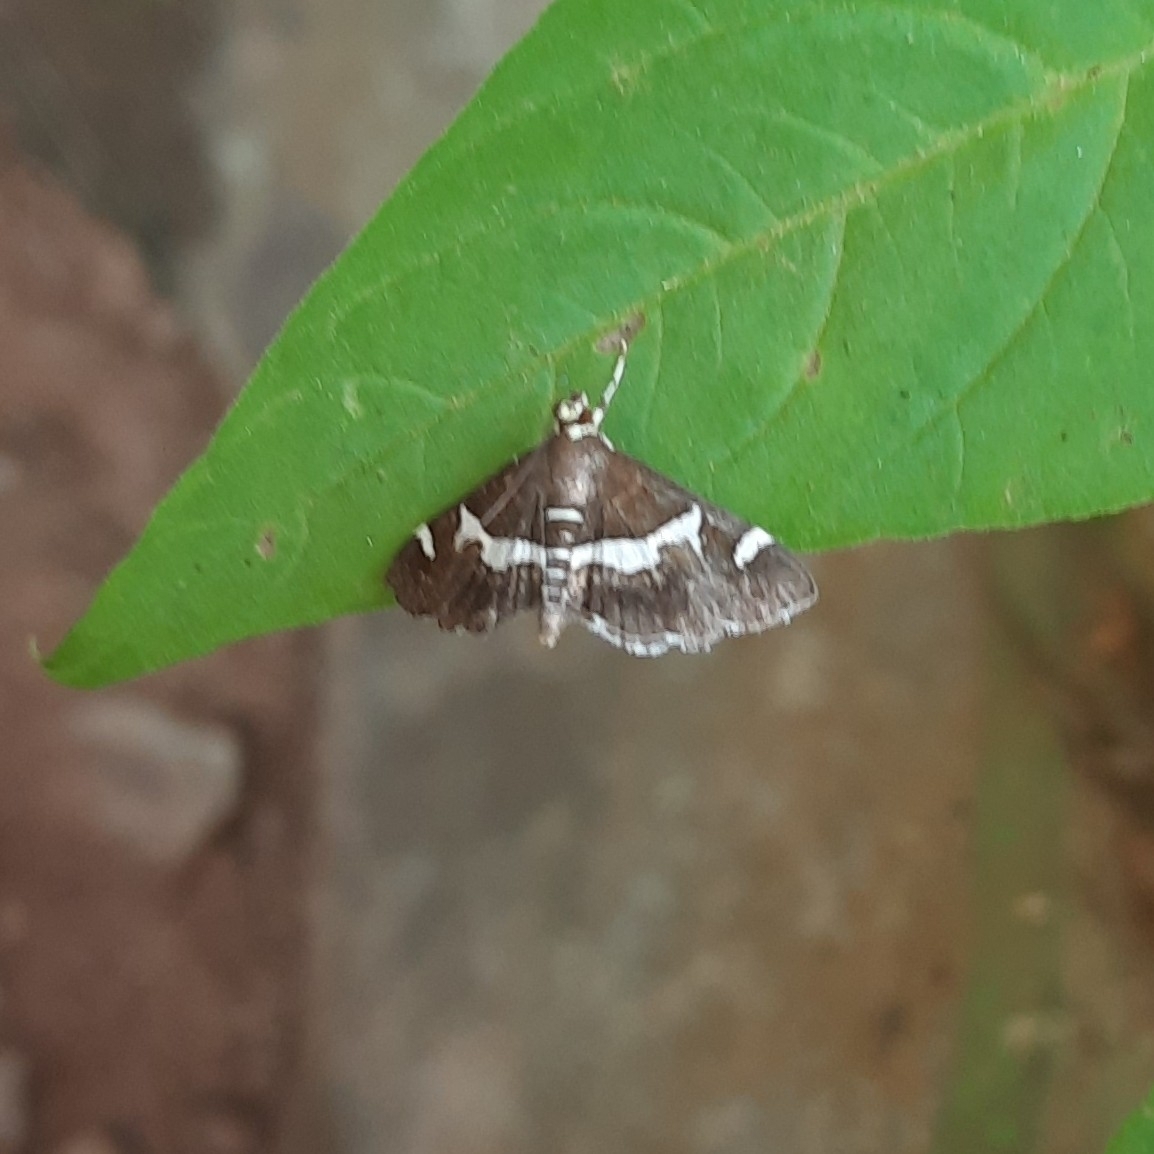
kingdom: Animalia
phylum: Arthropoda
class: Insecta
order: Lepidoptera
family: Crambidae
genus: Spoladea
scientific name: Spoladea recurvalis
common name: Beet webworm moth
